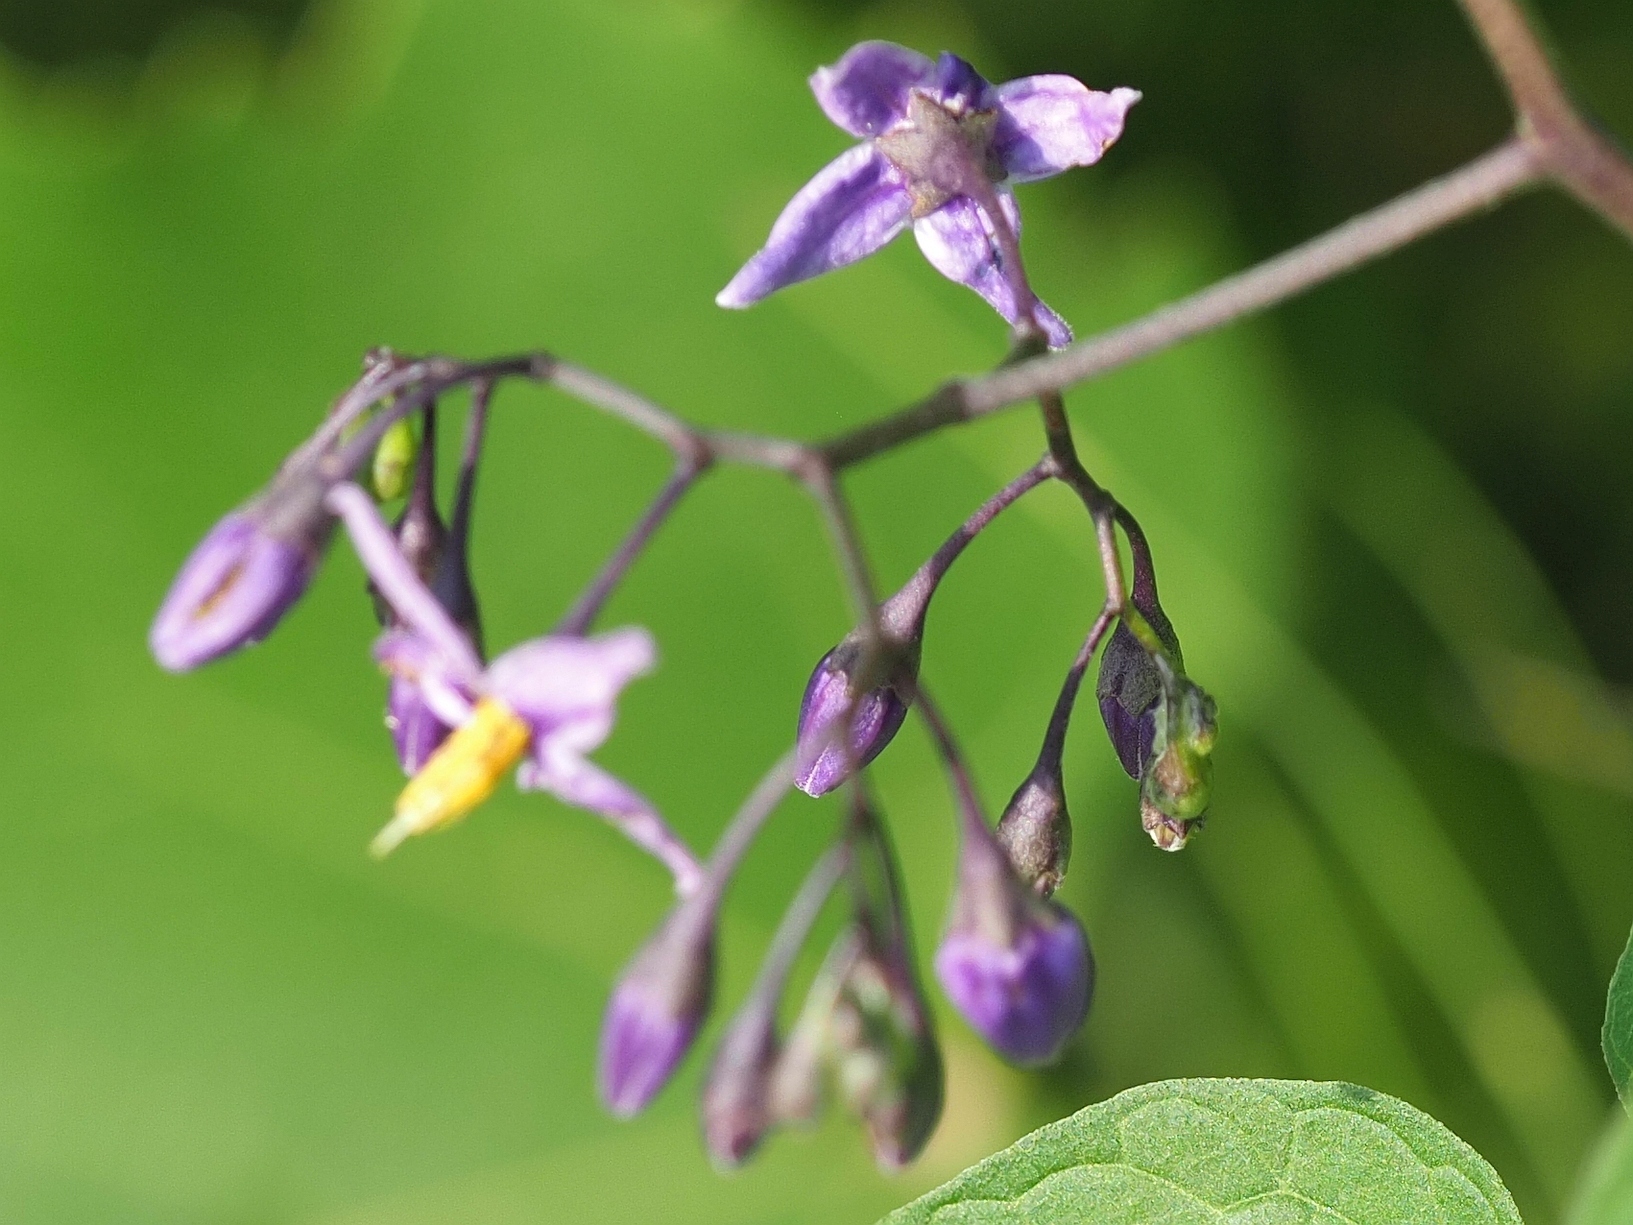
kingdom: Plantae
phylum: Tracheophyta
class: Magnoliopsida
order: Solanales
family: Solanaceae
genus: Solanum
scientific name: Solanum dulcamara
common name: Climbing nightshade
